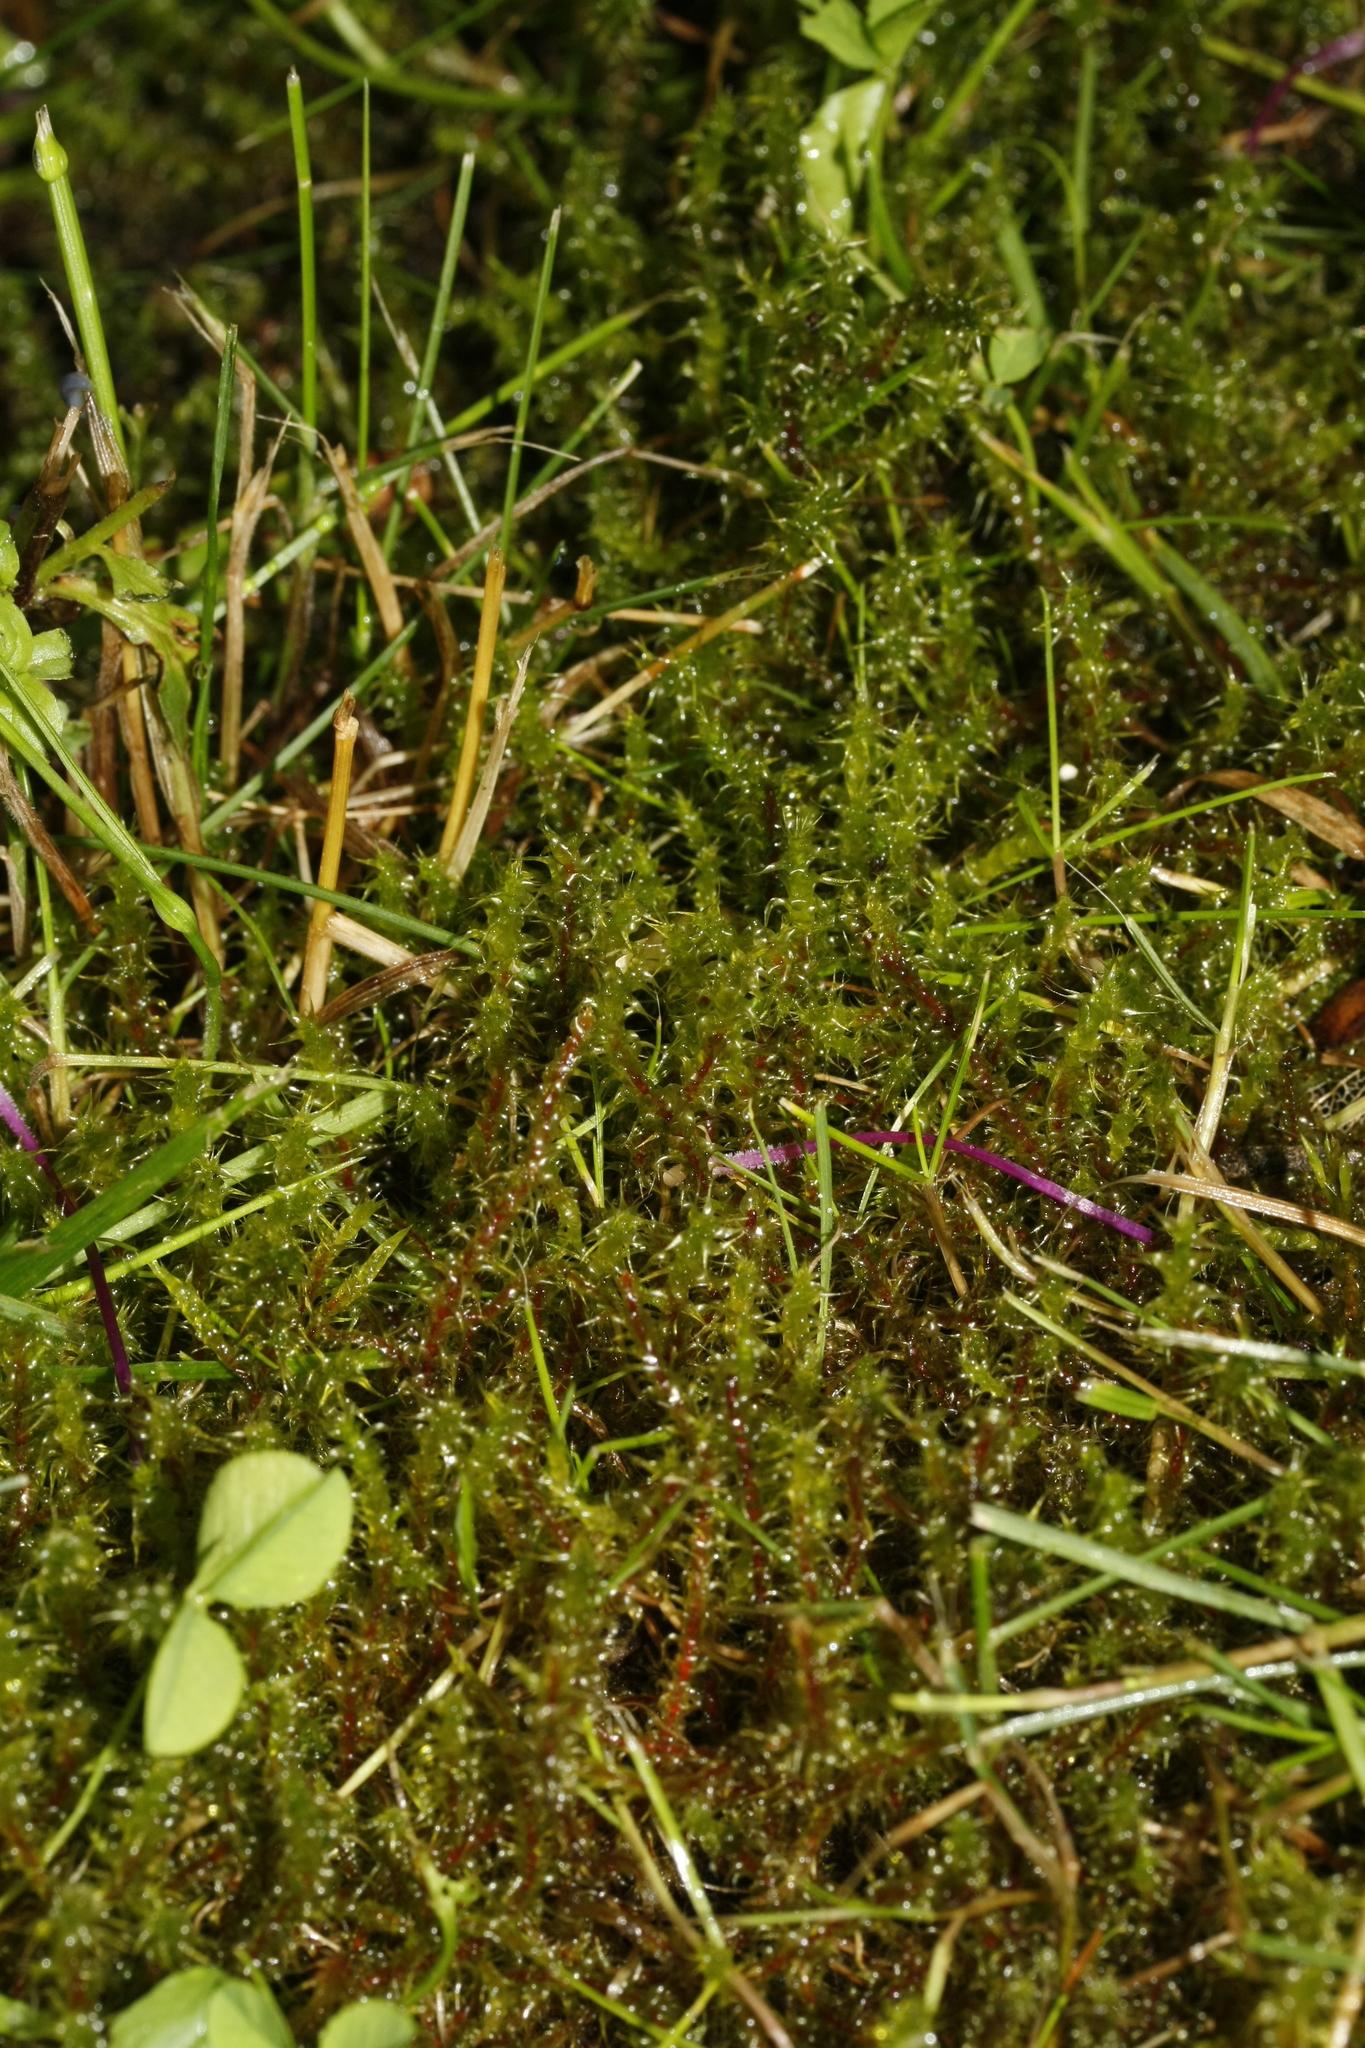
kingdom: Plantae
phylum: Bryophyta
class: Bryopsida
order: Hypnales
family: Hylocomiaceae
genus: Rhytidiadelphus
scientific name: Rhytidiadelphus squarrosus
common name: Springy turf-moss
